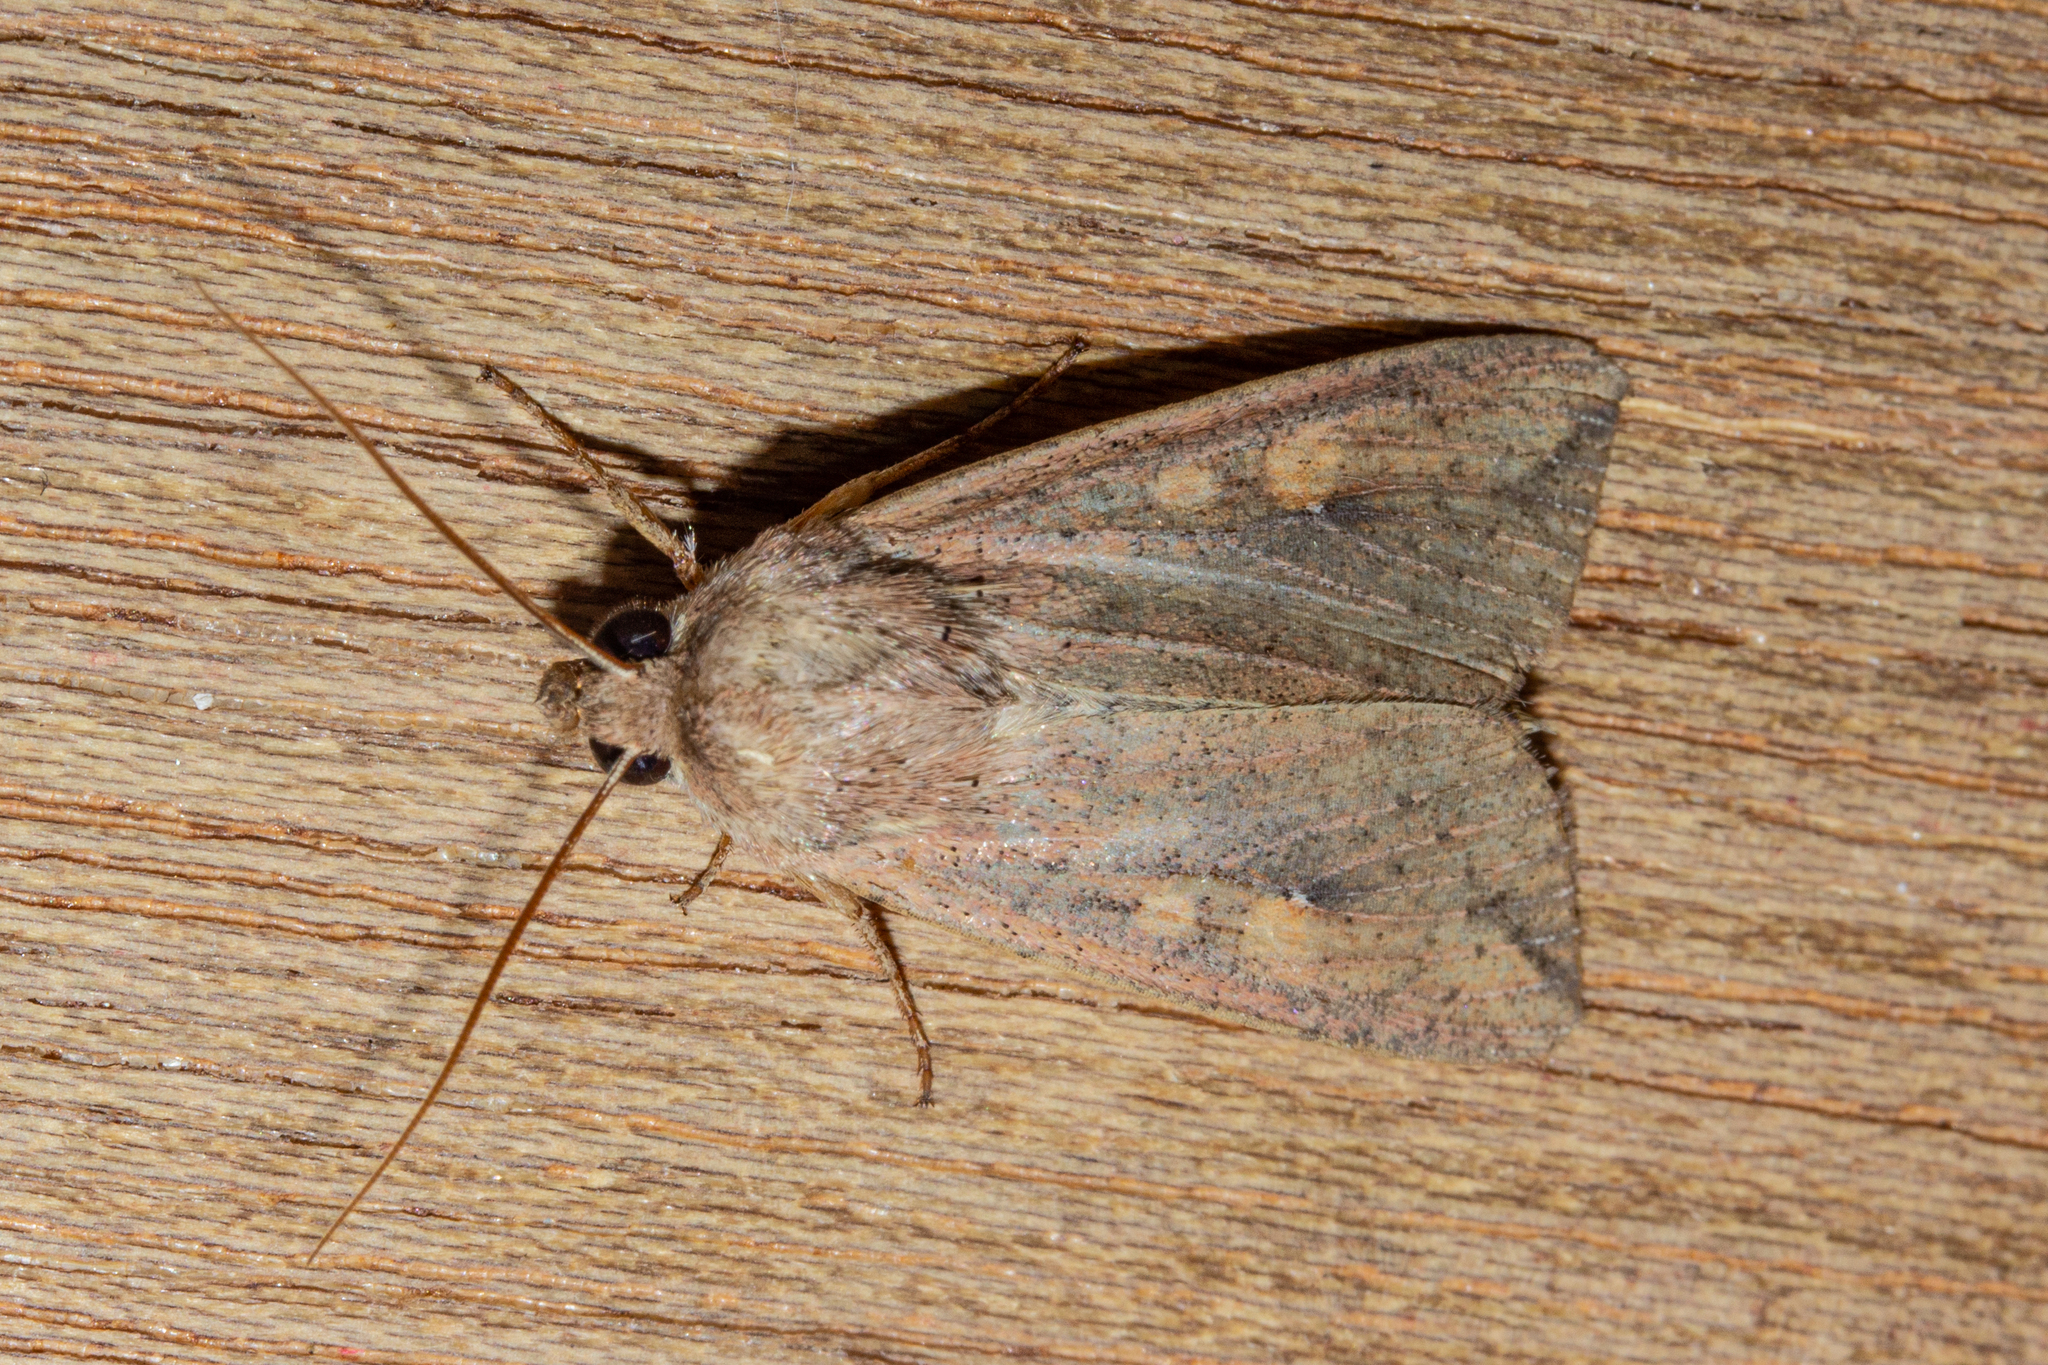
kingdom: Animalia
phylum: Arthropoda
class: Insecta
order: Lepidoptera
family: Noctuidae
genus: Mythimna
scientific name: Mythimna separata
